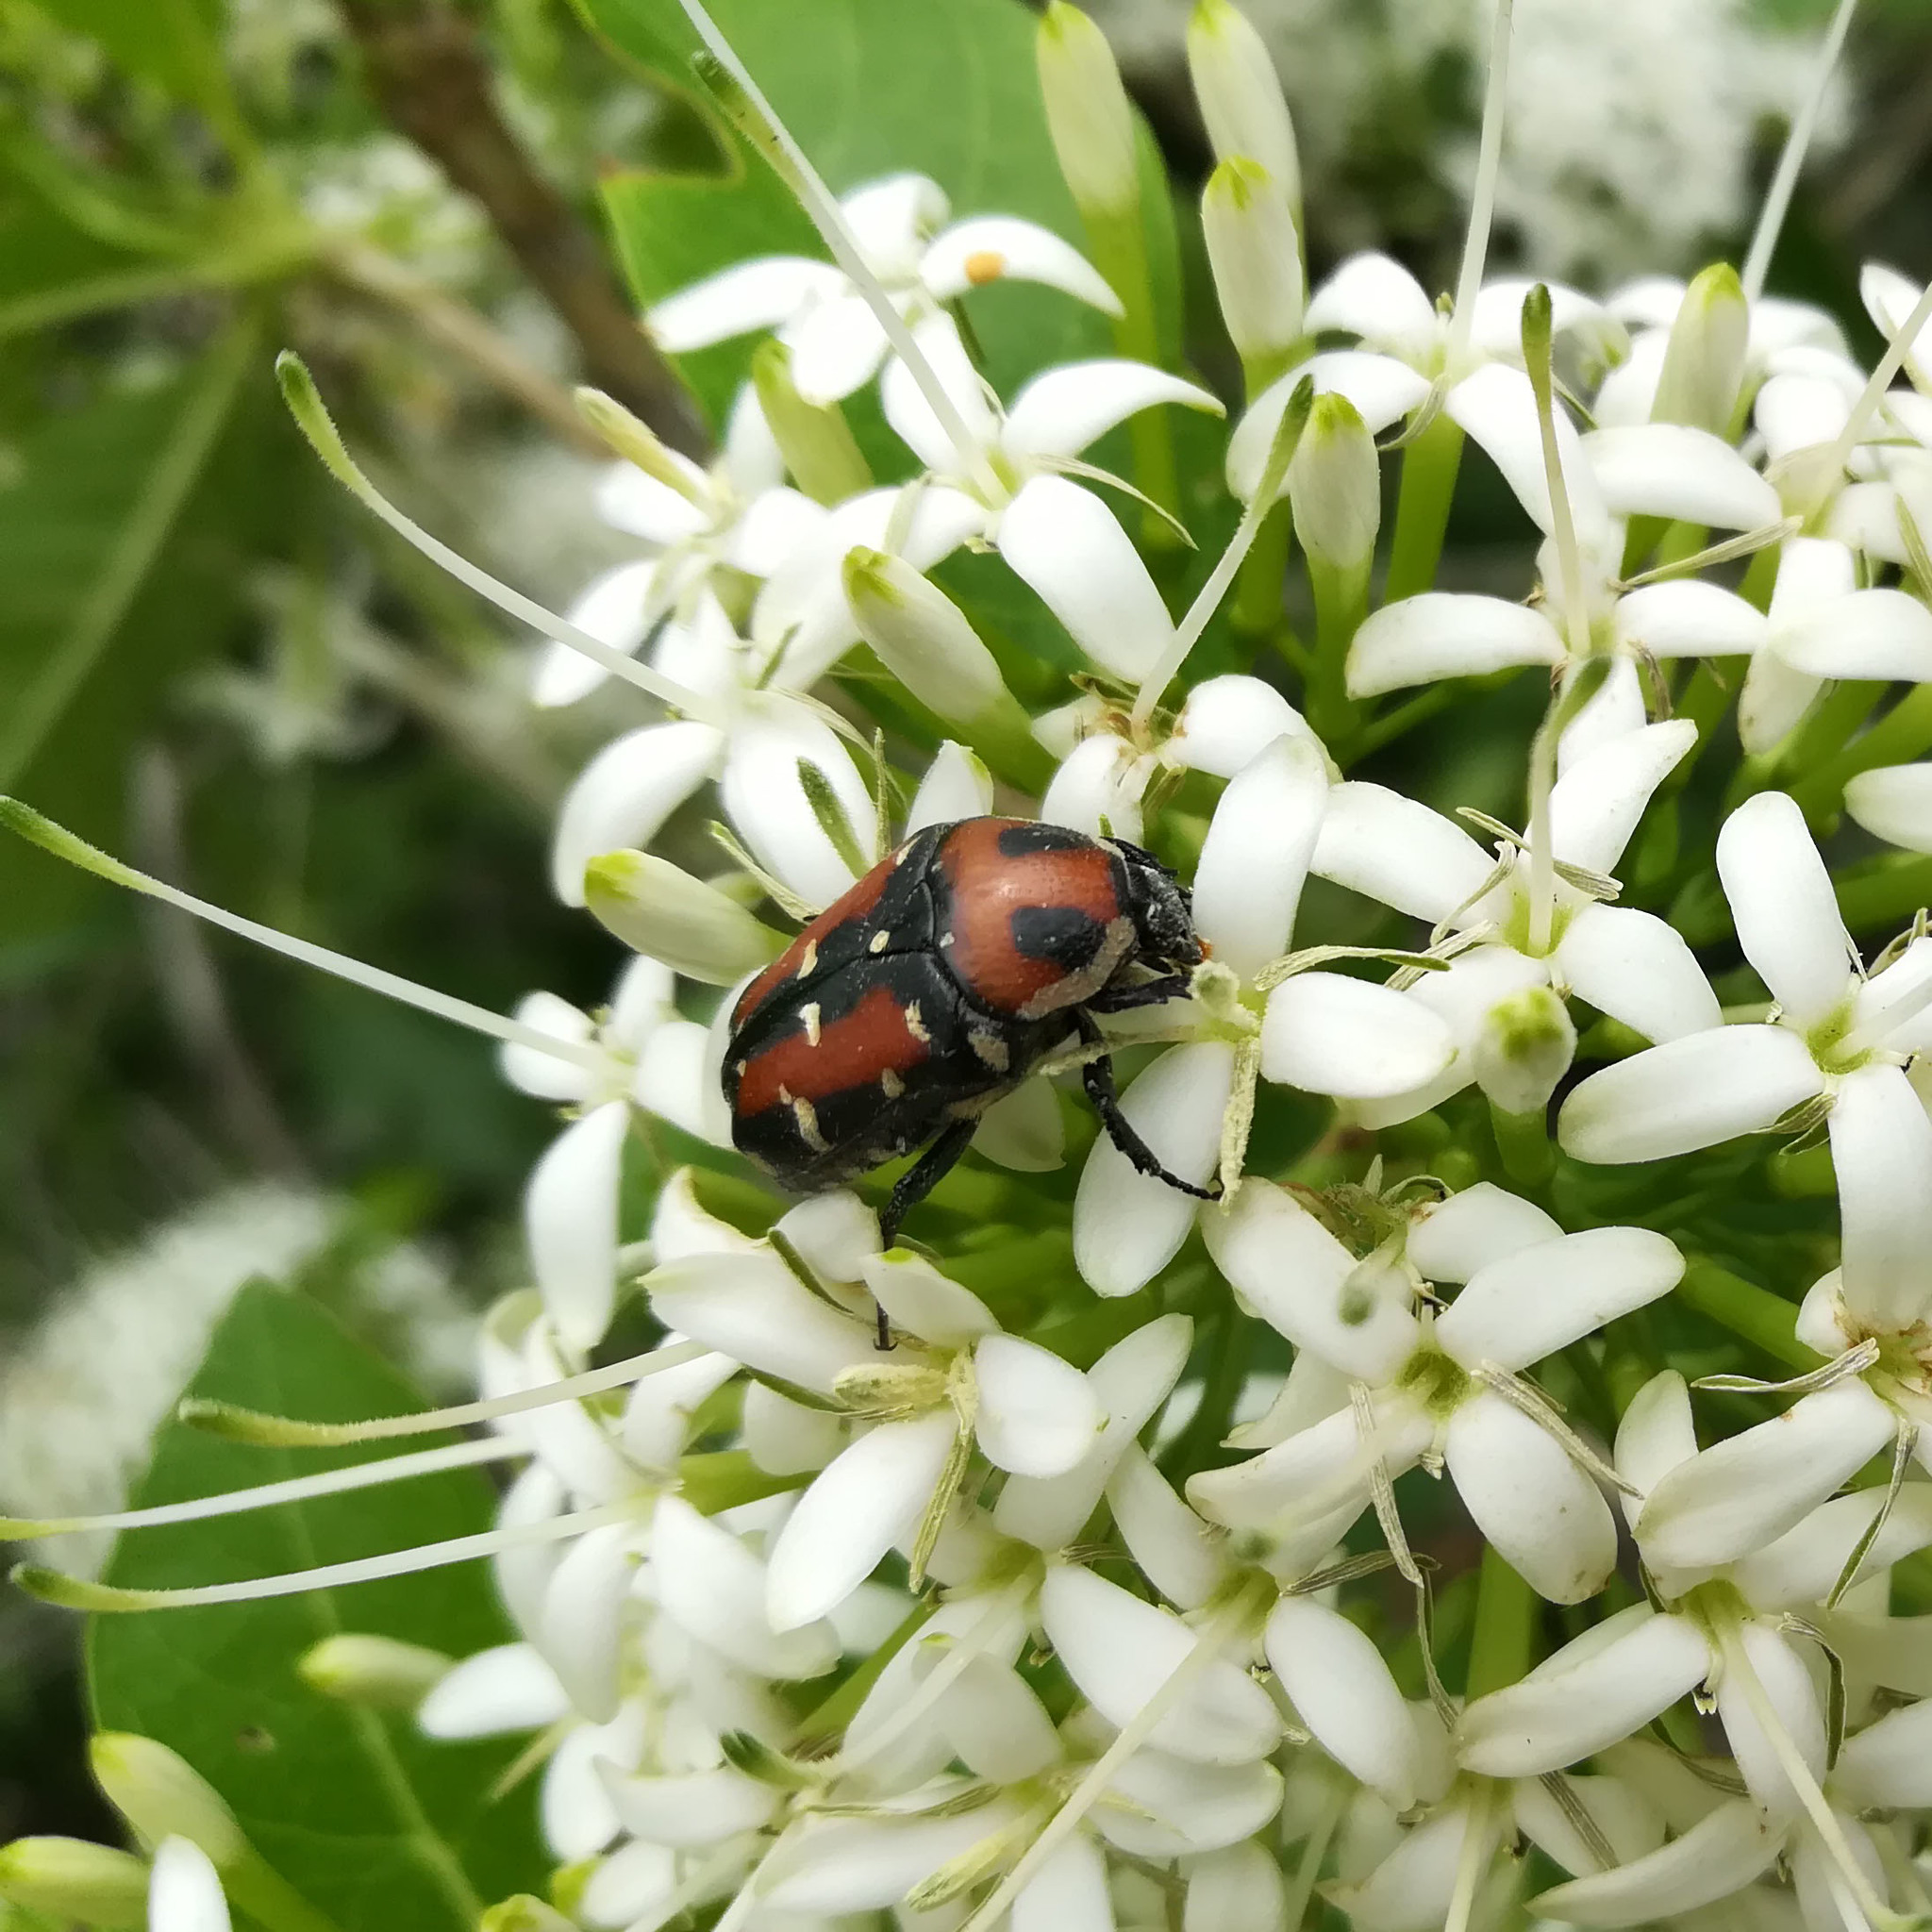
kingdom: Animalia
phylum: Arthropoda
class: Insecta
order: Coleoptera
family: Scarabaeidae
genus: Gametis
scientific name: Gametis versicolor
